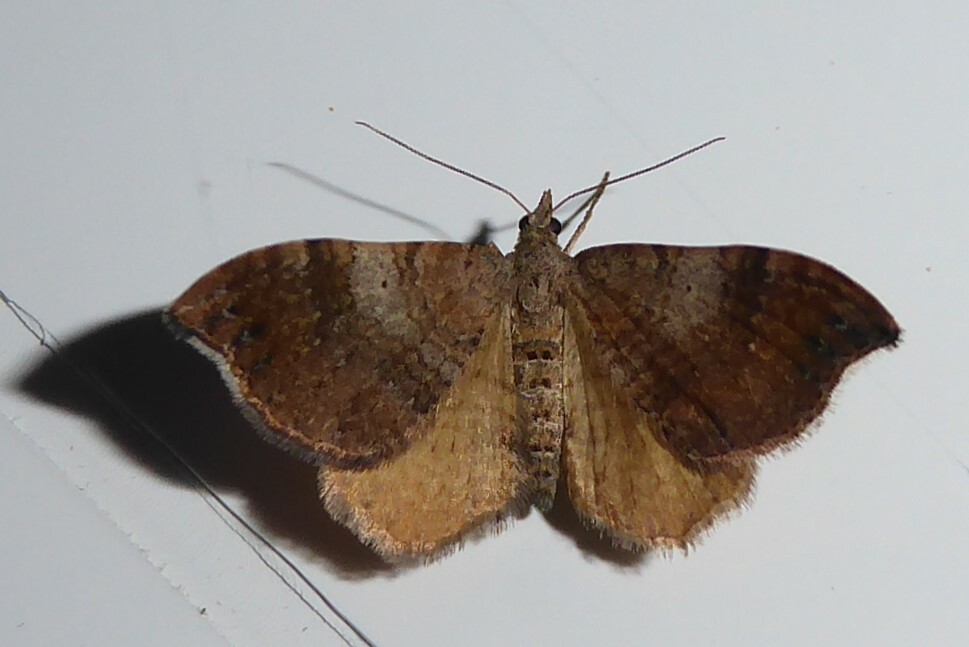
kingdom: Animalia
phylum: Arthropoda
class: Insecta
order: Lepidoptera
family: Geometridae
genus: Homodotis
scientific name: Homodotis megaspilata
